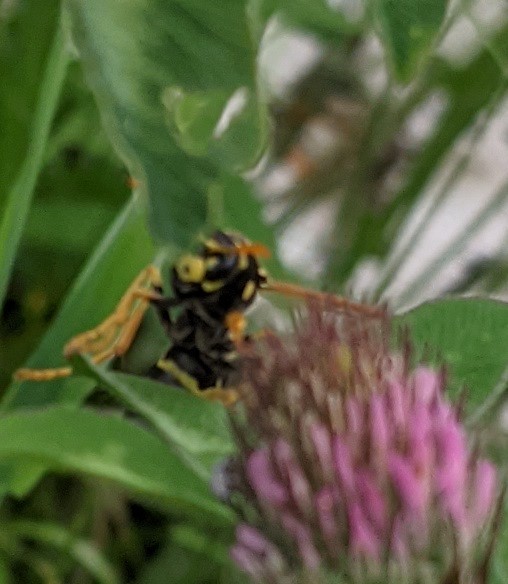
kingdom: Animalia
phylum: Arthropoda
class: Insecta
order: Hymenoptera
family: Eumenidae
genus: Polistes
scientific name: Polistes dominula
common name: Paper wasp
